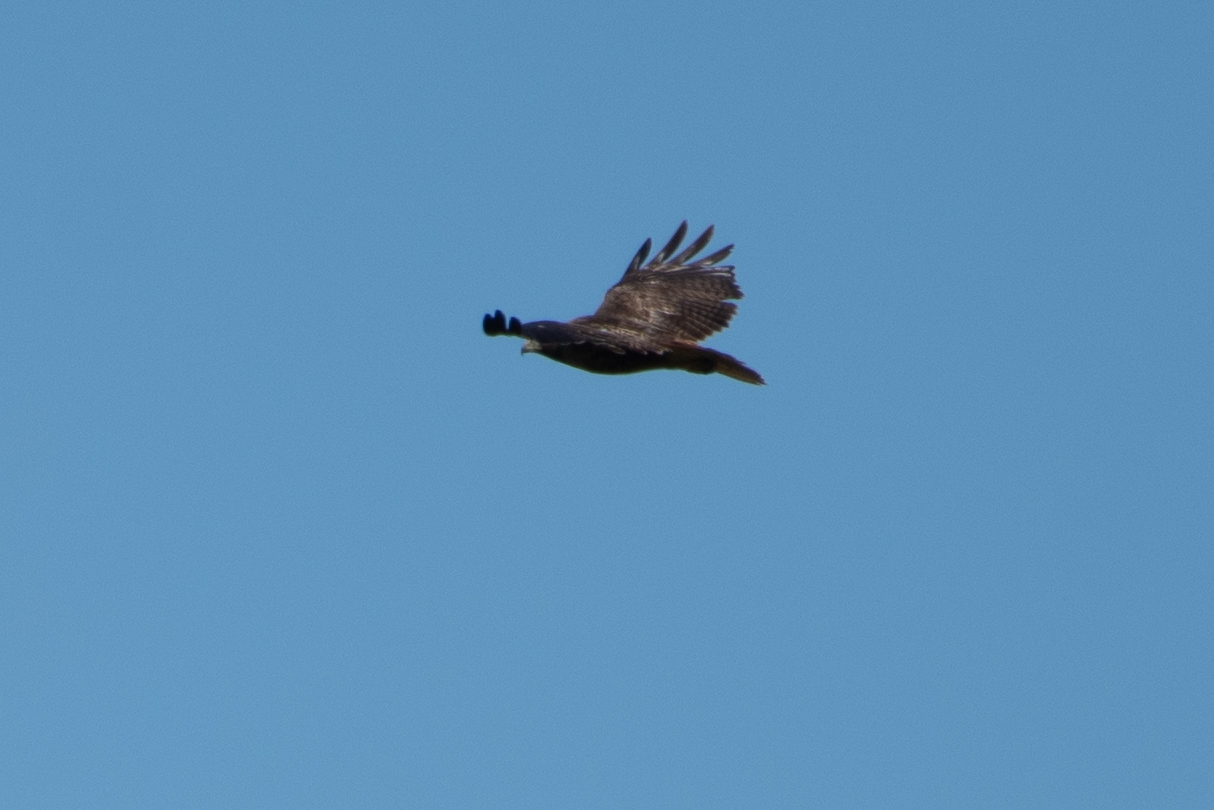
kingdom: Animalia
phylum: Chordata
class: Aves
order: Accipitriformes
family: Accipitridae
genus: Buteo
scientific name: Buteo jamaicensis
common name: Red-tailed hawk
